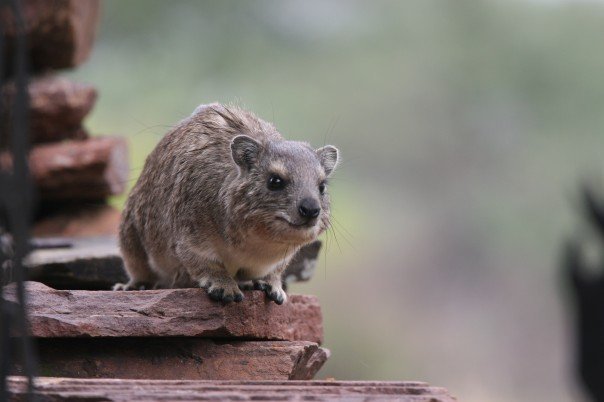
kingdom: Animalia
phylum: Chordata
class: Mammalia
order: Hyracoidea
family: Procaviidae
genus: Heterohyrax
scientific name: Heterohyrax brucei
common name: Bush hyrax
